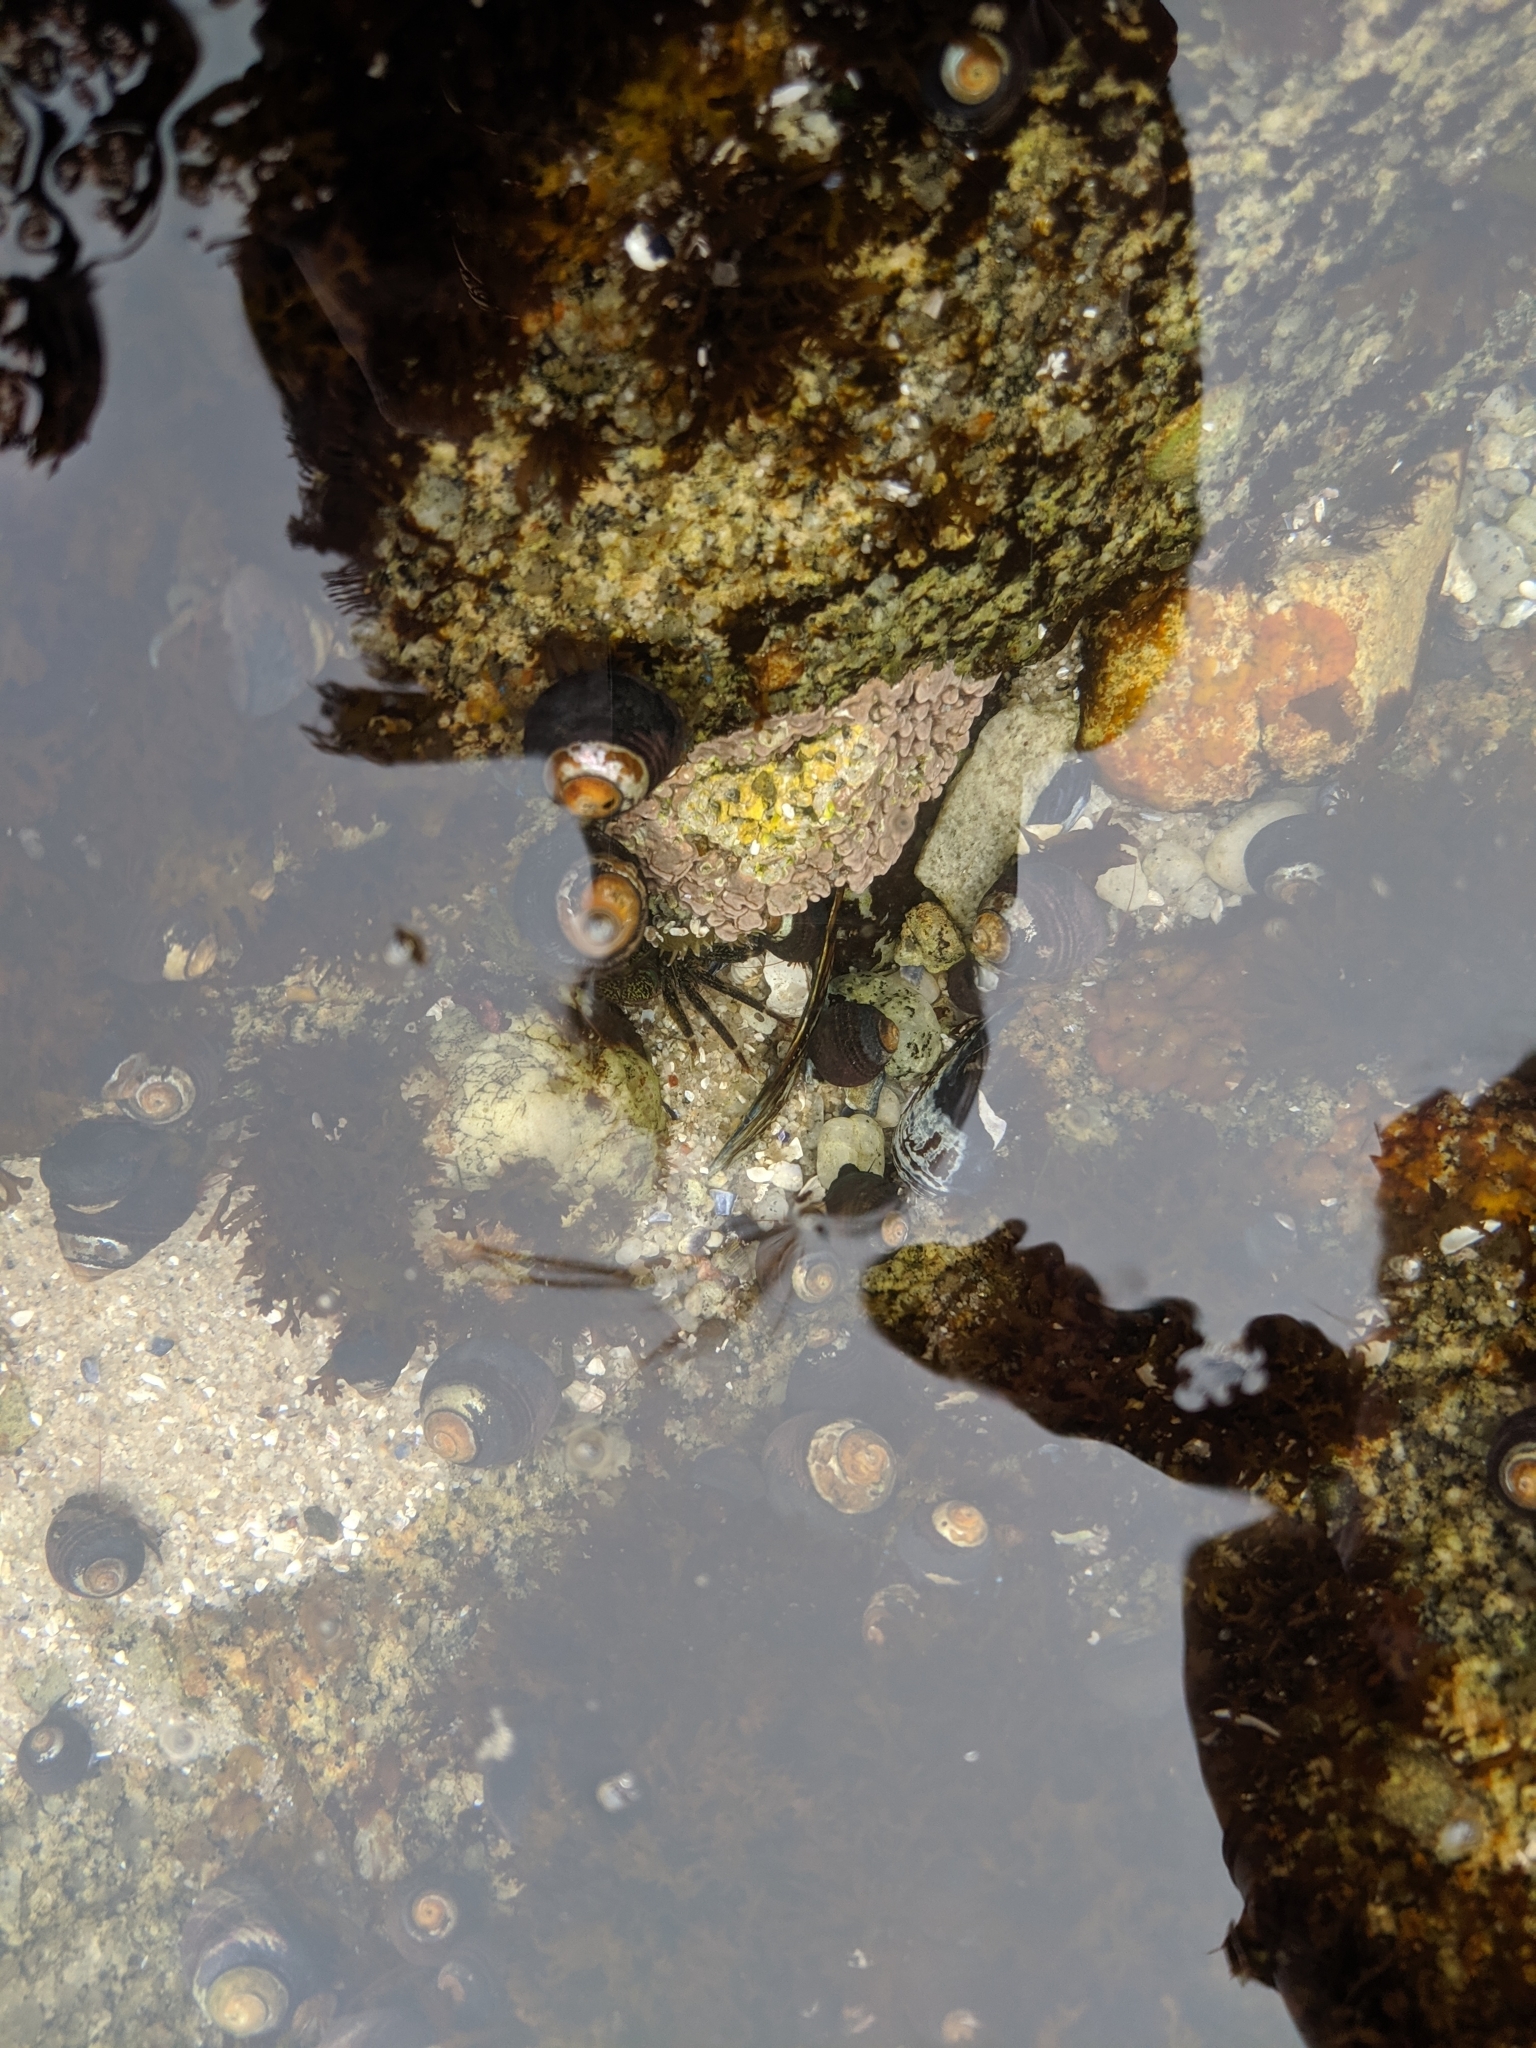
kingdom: Animalia
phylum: Mollusca
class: Gastropoda
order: Trochida
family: Tegulidae
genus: Tegula
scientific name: Tegula funebralis
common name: Black tegula
